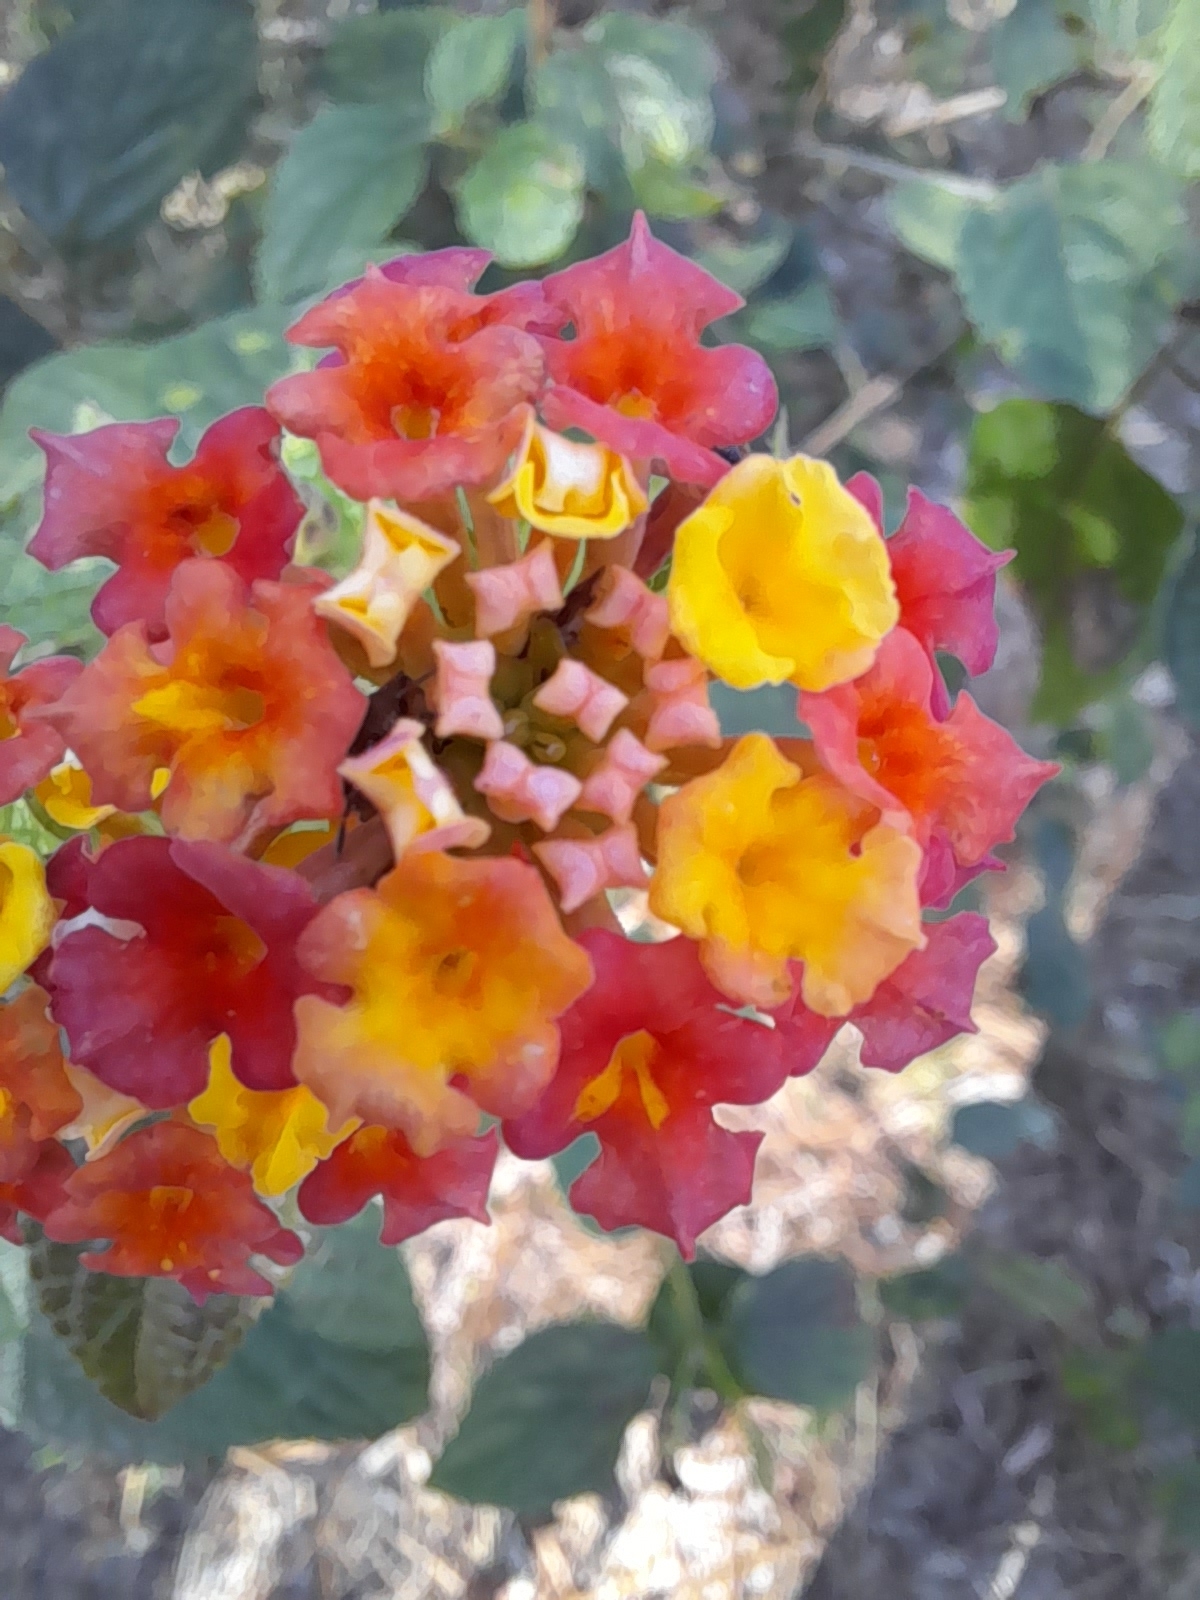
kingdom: Plantae
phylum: Tracheophyta
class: Magnoliopsida
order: Lamiales
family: Verbenaceae
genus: Lantana
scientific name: Lantana camara
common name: Lantana
